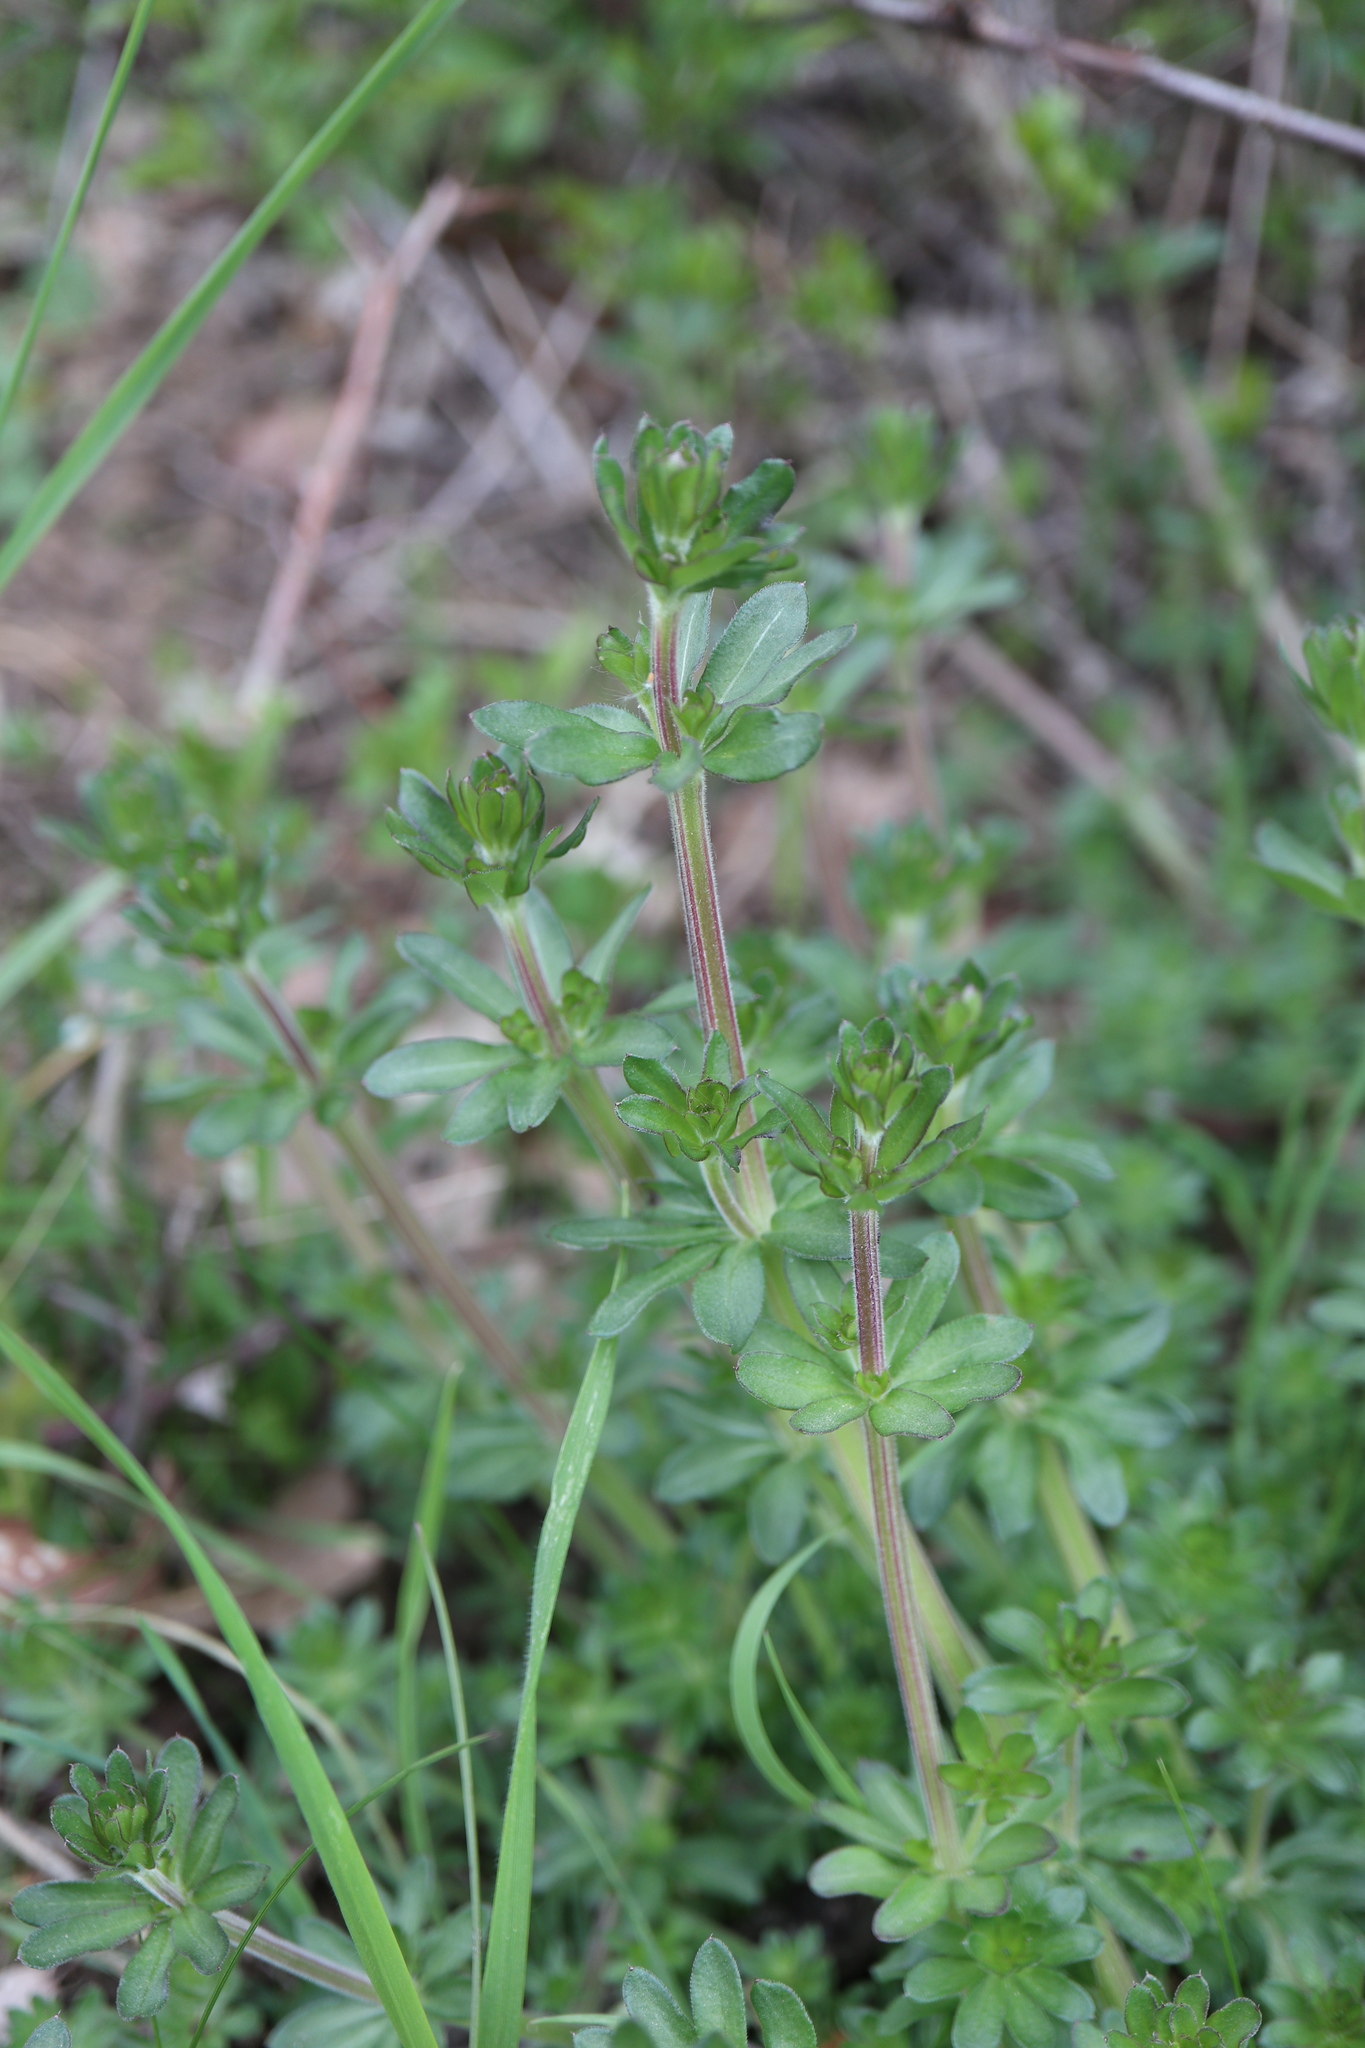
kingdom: Plantae
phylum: Tracheophyta
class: Magnoliopsida
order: Gentianales
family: Rubiaceae
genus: Galium
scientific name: Galium mollugo
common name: Hedge bedstraw
